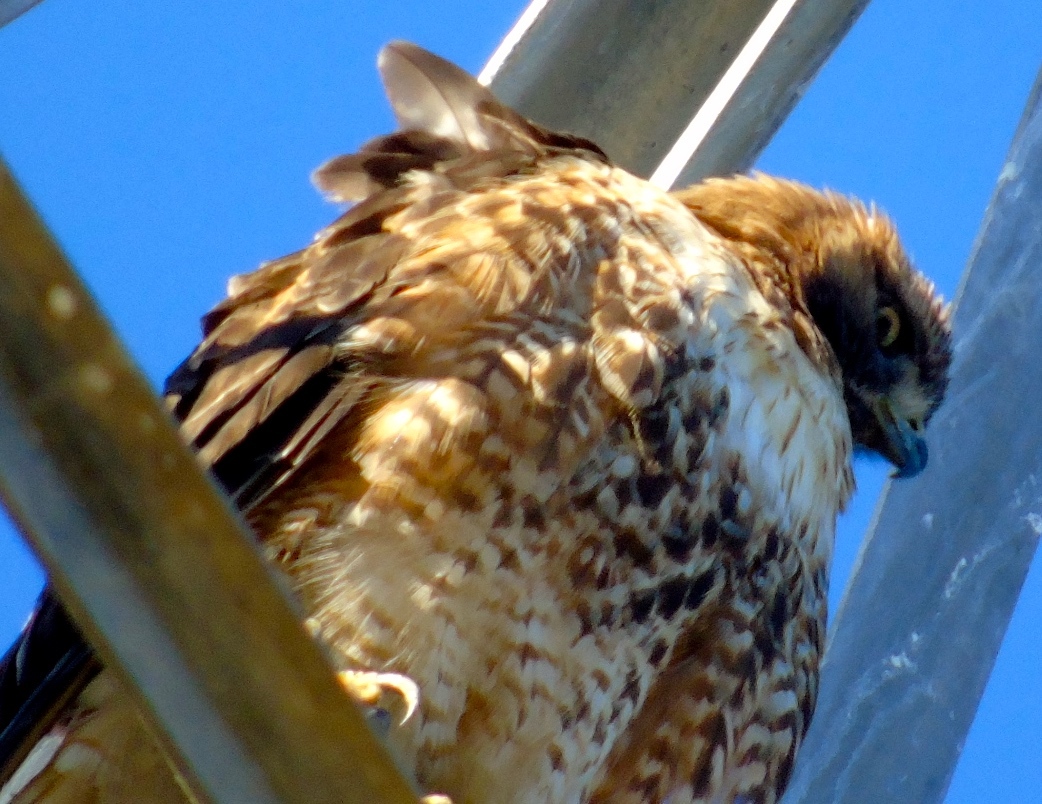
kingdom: Animalia
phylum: Chordata
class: Aves
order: Accipitriformes
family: Accipitridae
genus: Buteo
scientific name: Buteo jamaicensis
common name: Red-tailed hawk
